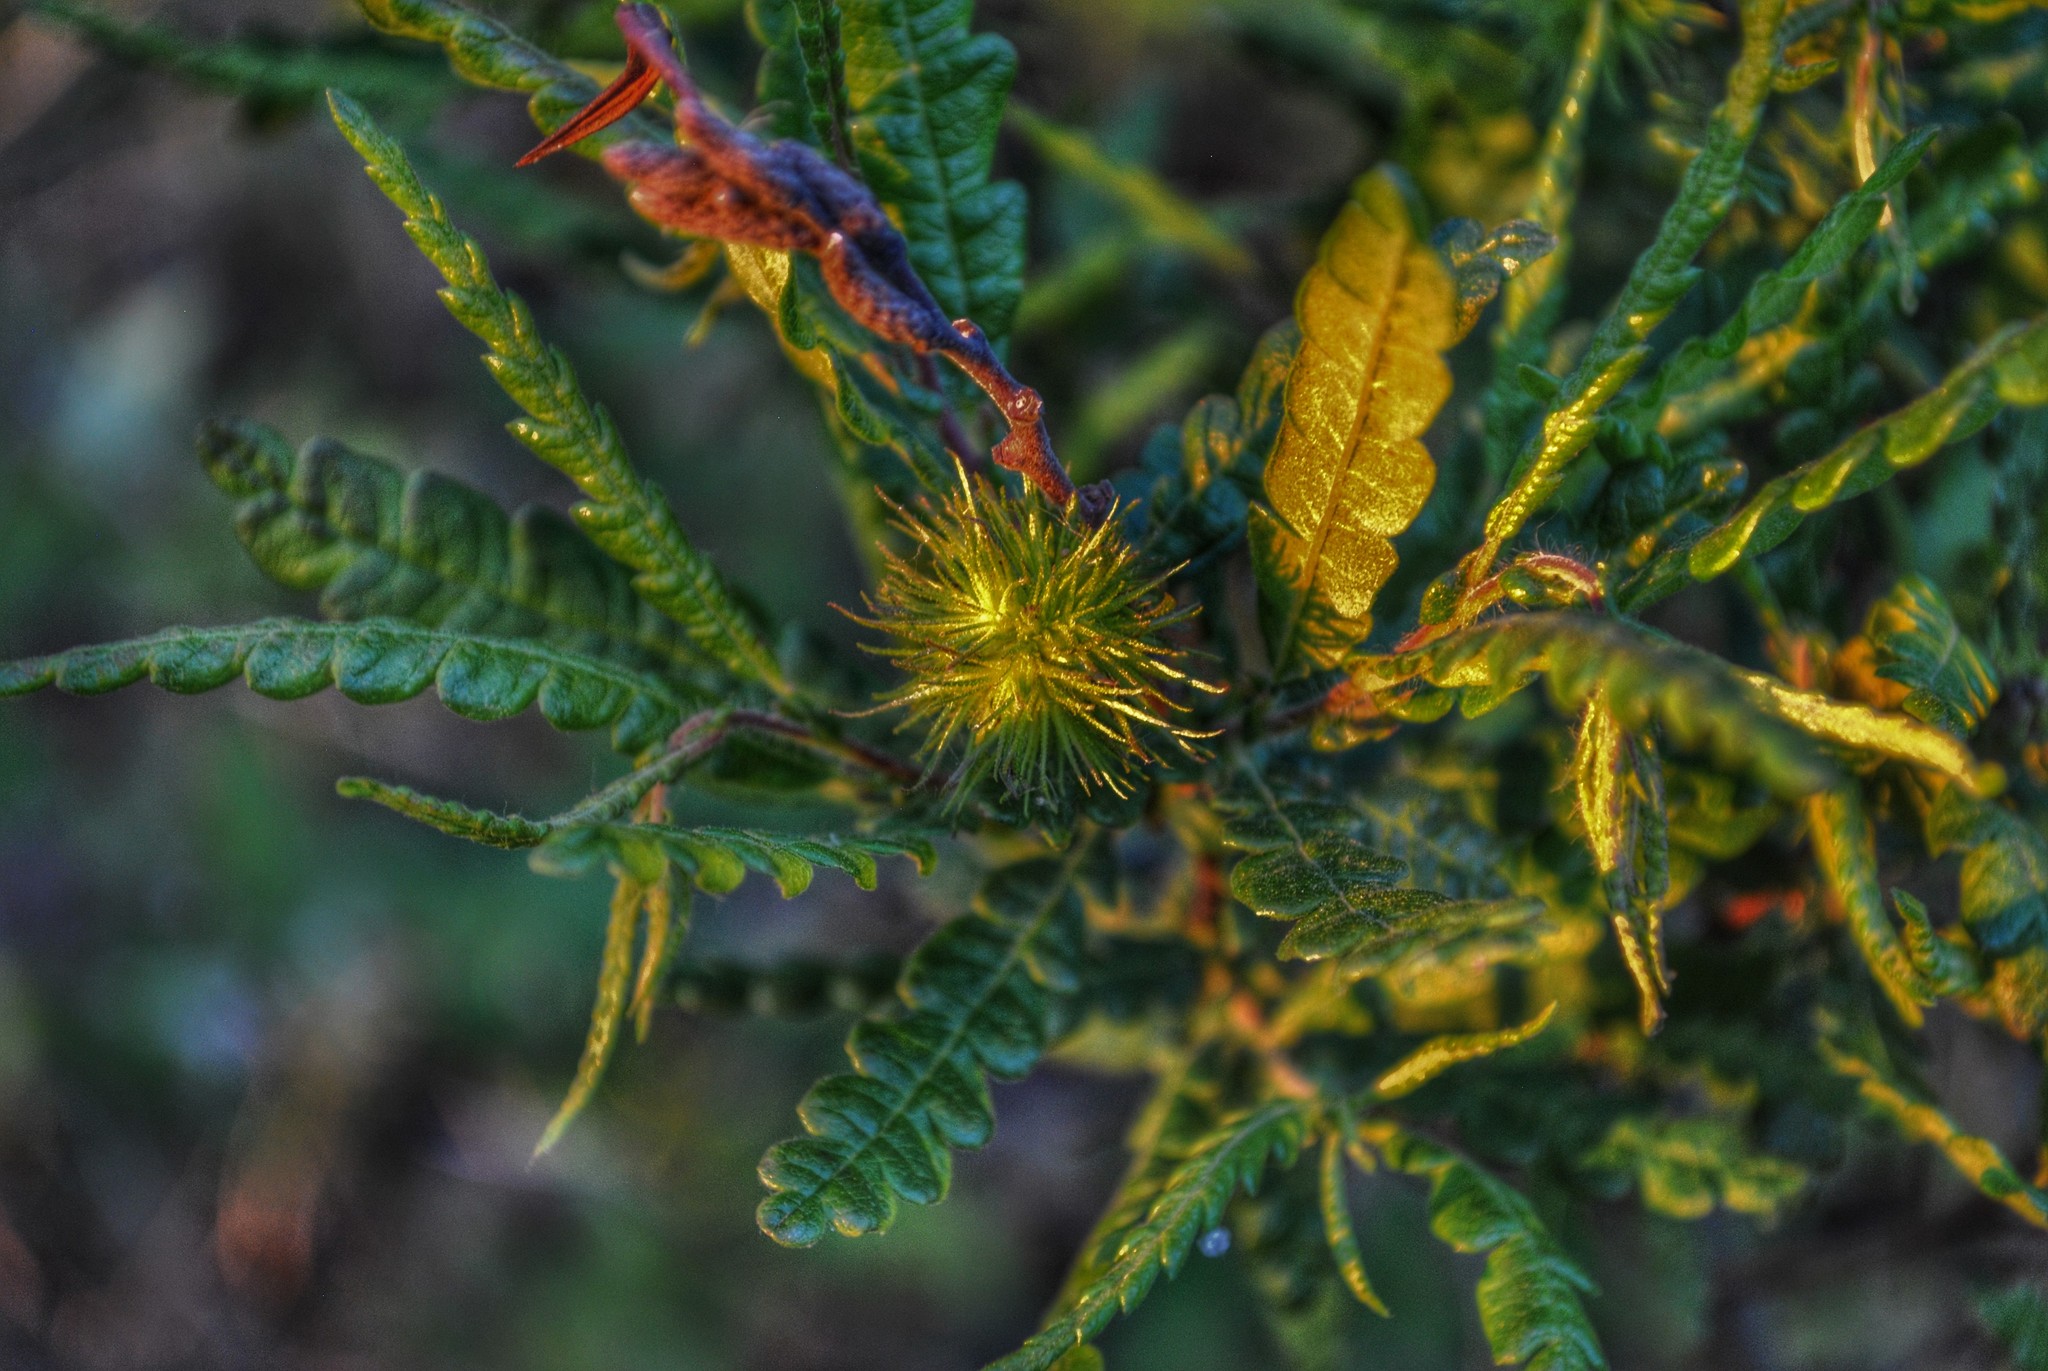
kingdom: Plantae
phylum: Tracheophyta
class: Magnoliopsida
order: Fagales
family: Myricaceae
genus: Comptonia
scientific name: Comptonia peregrina
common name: Sweet-fern
